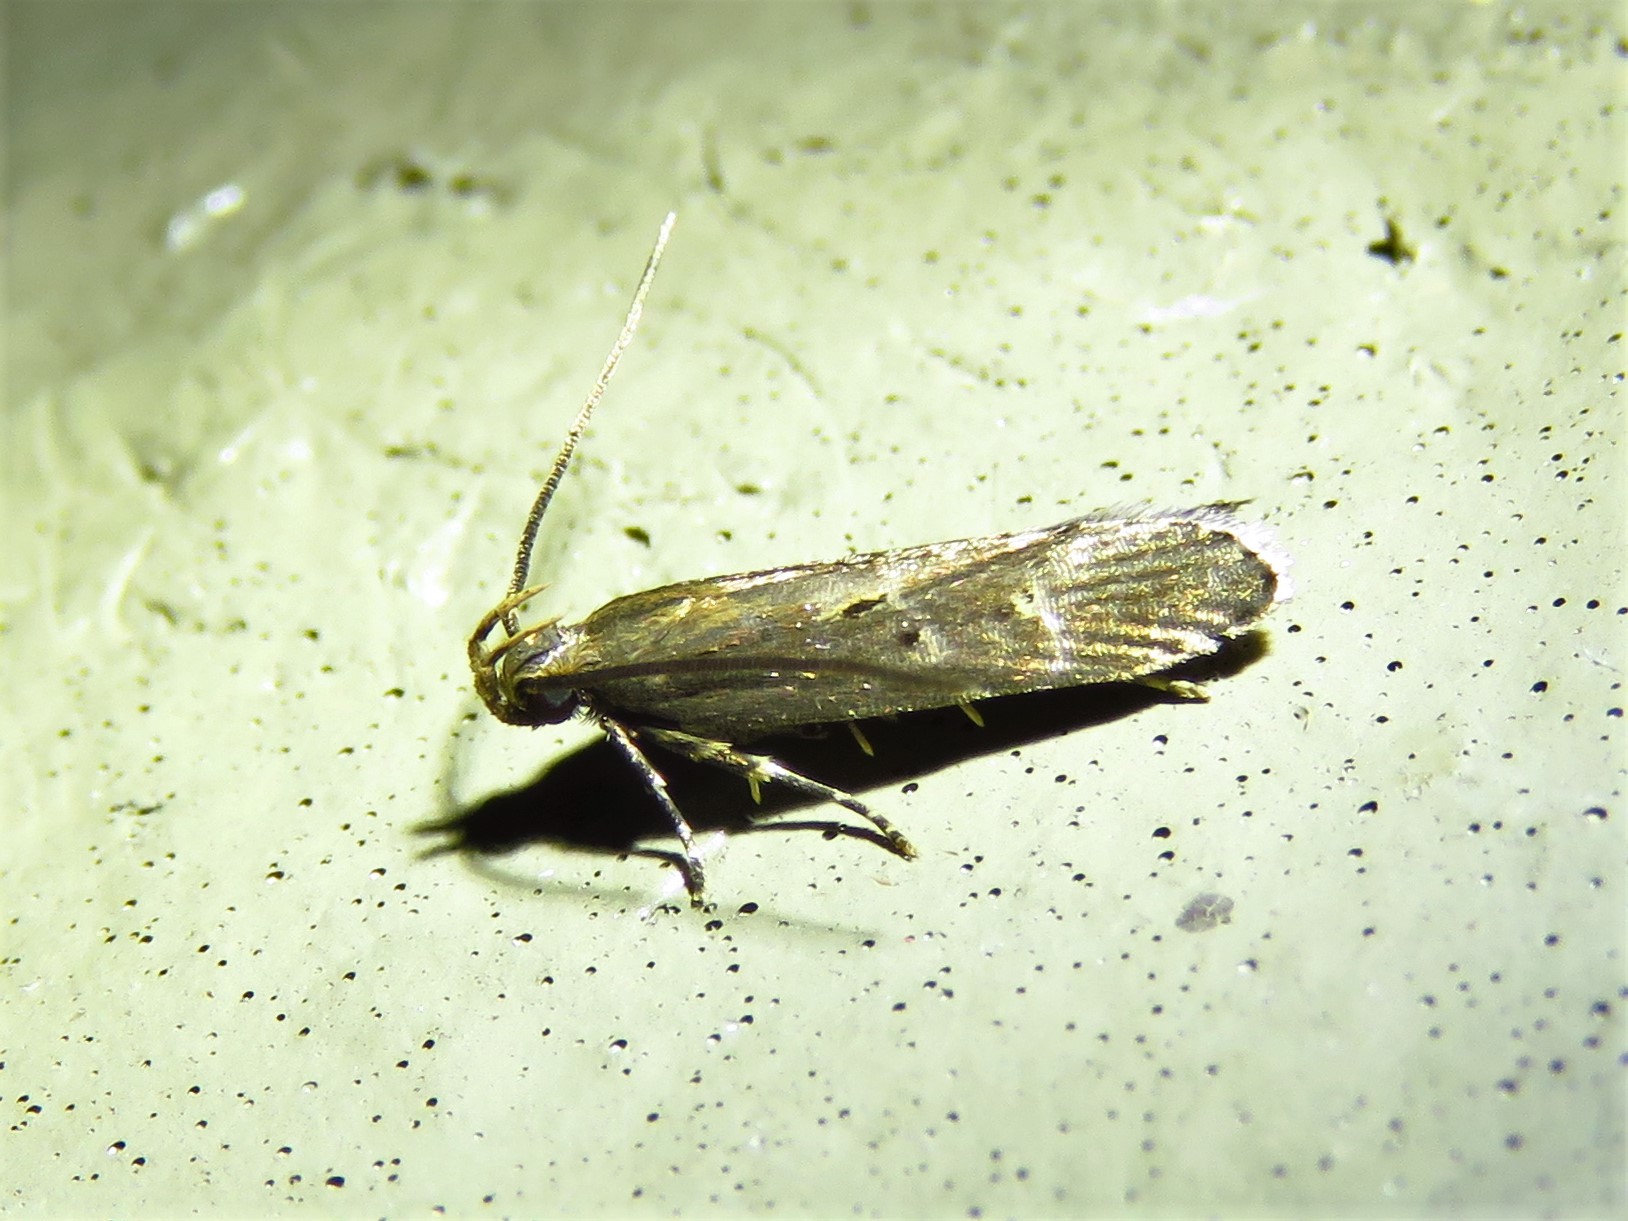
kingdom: Animalia
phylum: Arthropoda
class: Insecta
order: Lepidoptera
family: Gelechiidae
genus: Chionodes
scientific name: Chionodes discoocellella
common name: Eye-ringed chionodes moth
